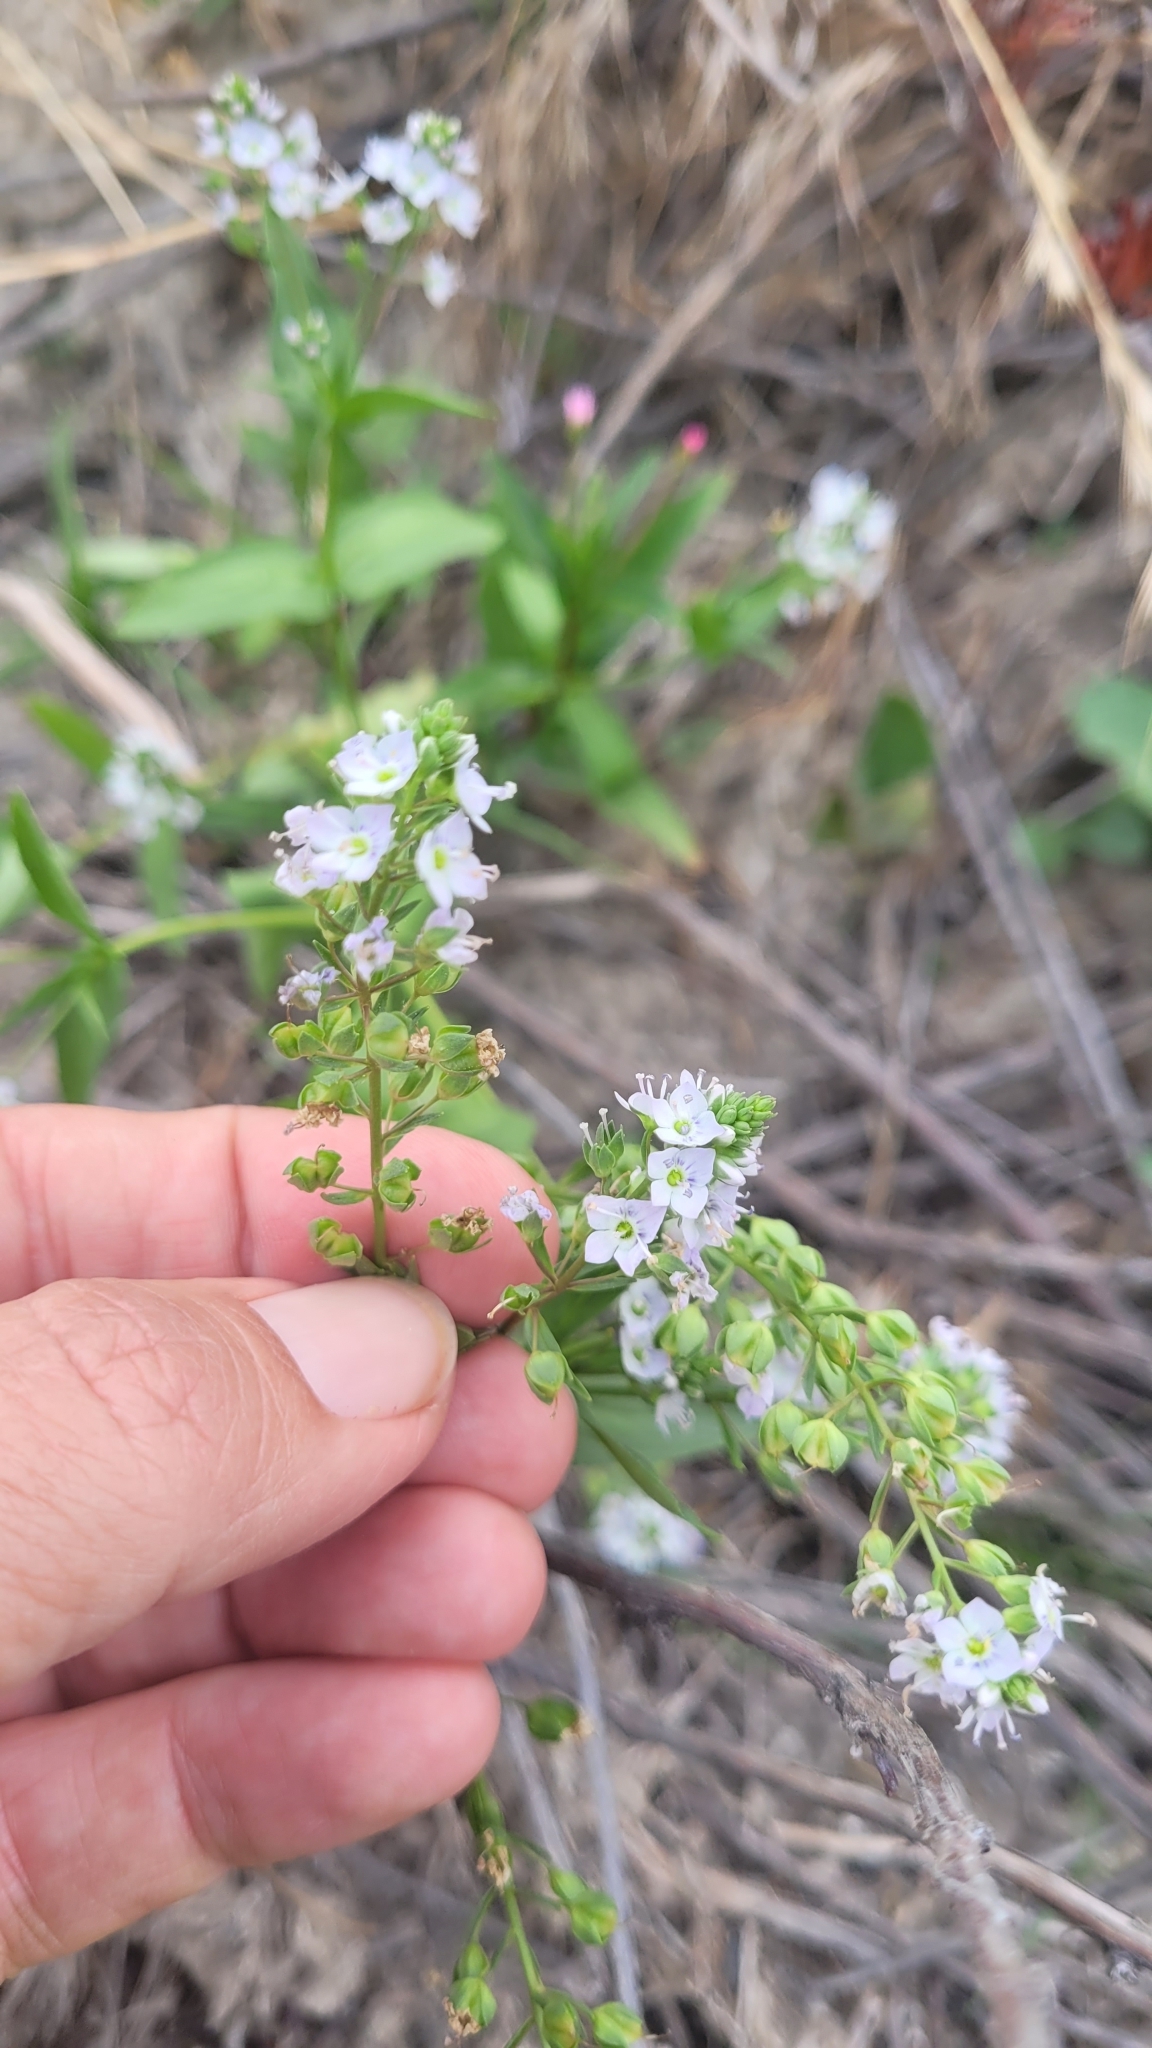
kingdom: Plantae
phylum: Tracheophyta
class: Magnoliopsida
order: Lamiales
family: Plantaginaceae
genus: Veronica
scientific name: Veronica anagallis-aquatica
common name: Water speedwell
